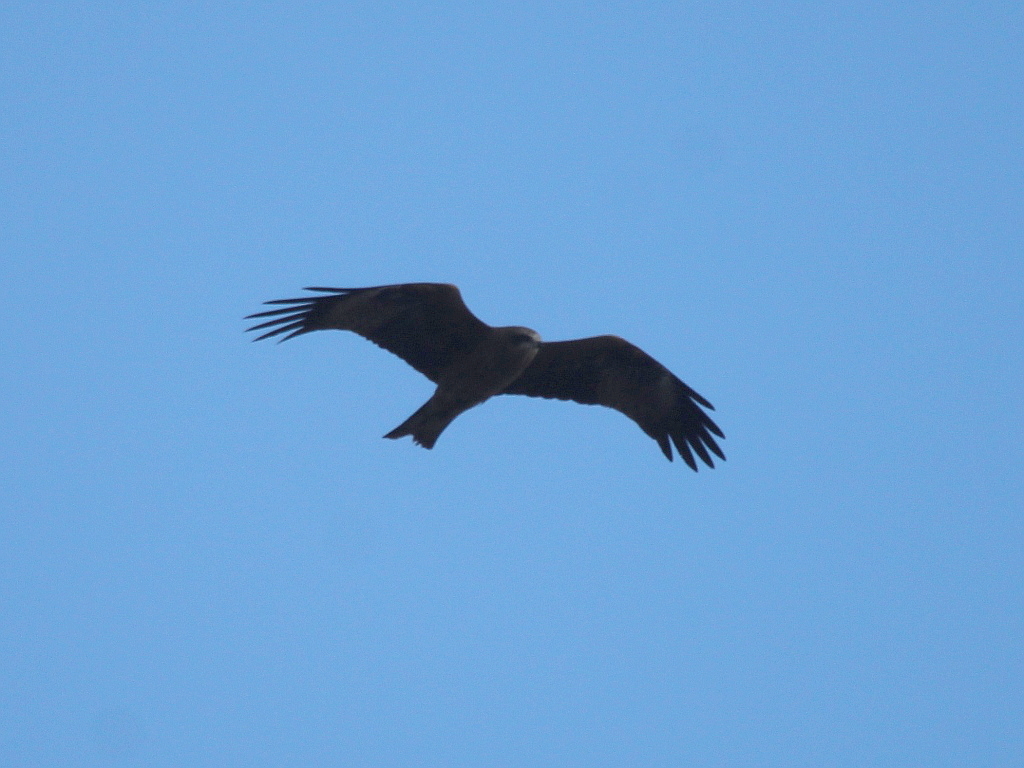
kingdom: Animalia
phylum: Chordata
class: Aves
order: Accipitriformes
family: Accipitridae
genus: Milvus
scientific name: Milvus migrans
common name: Black kite
